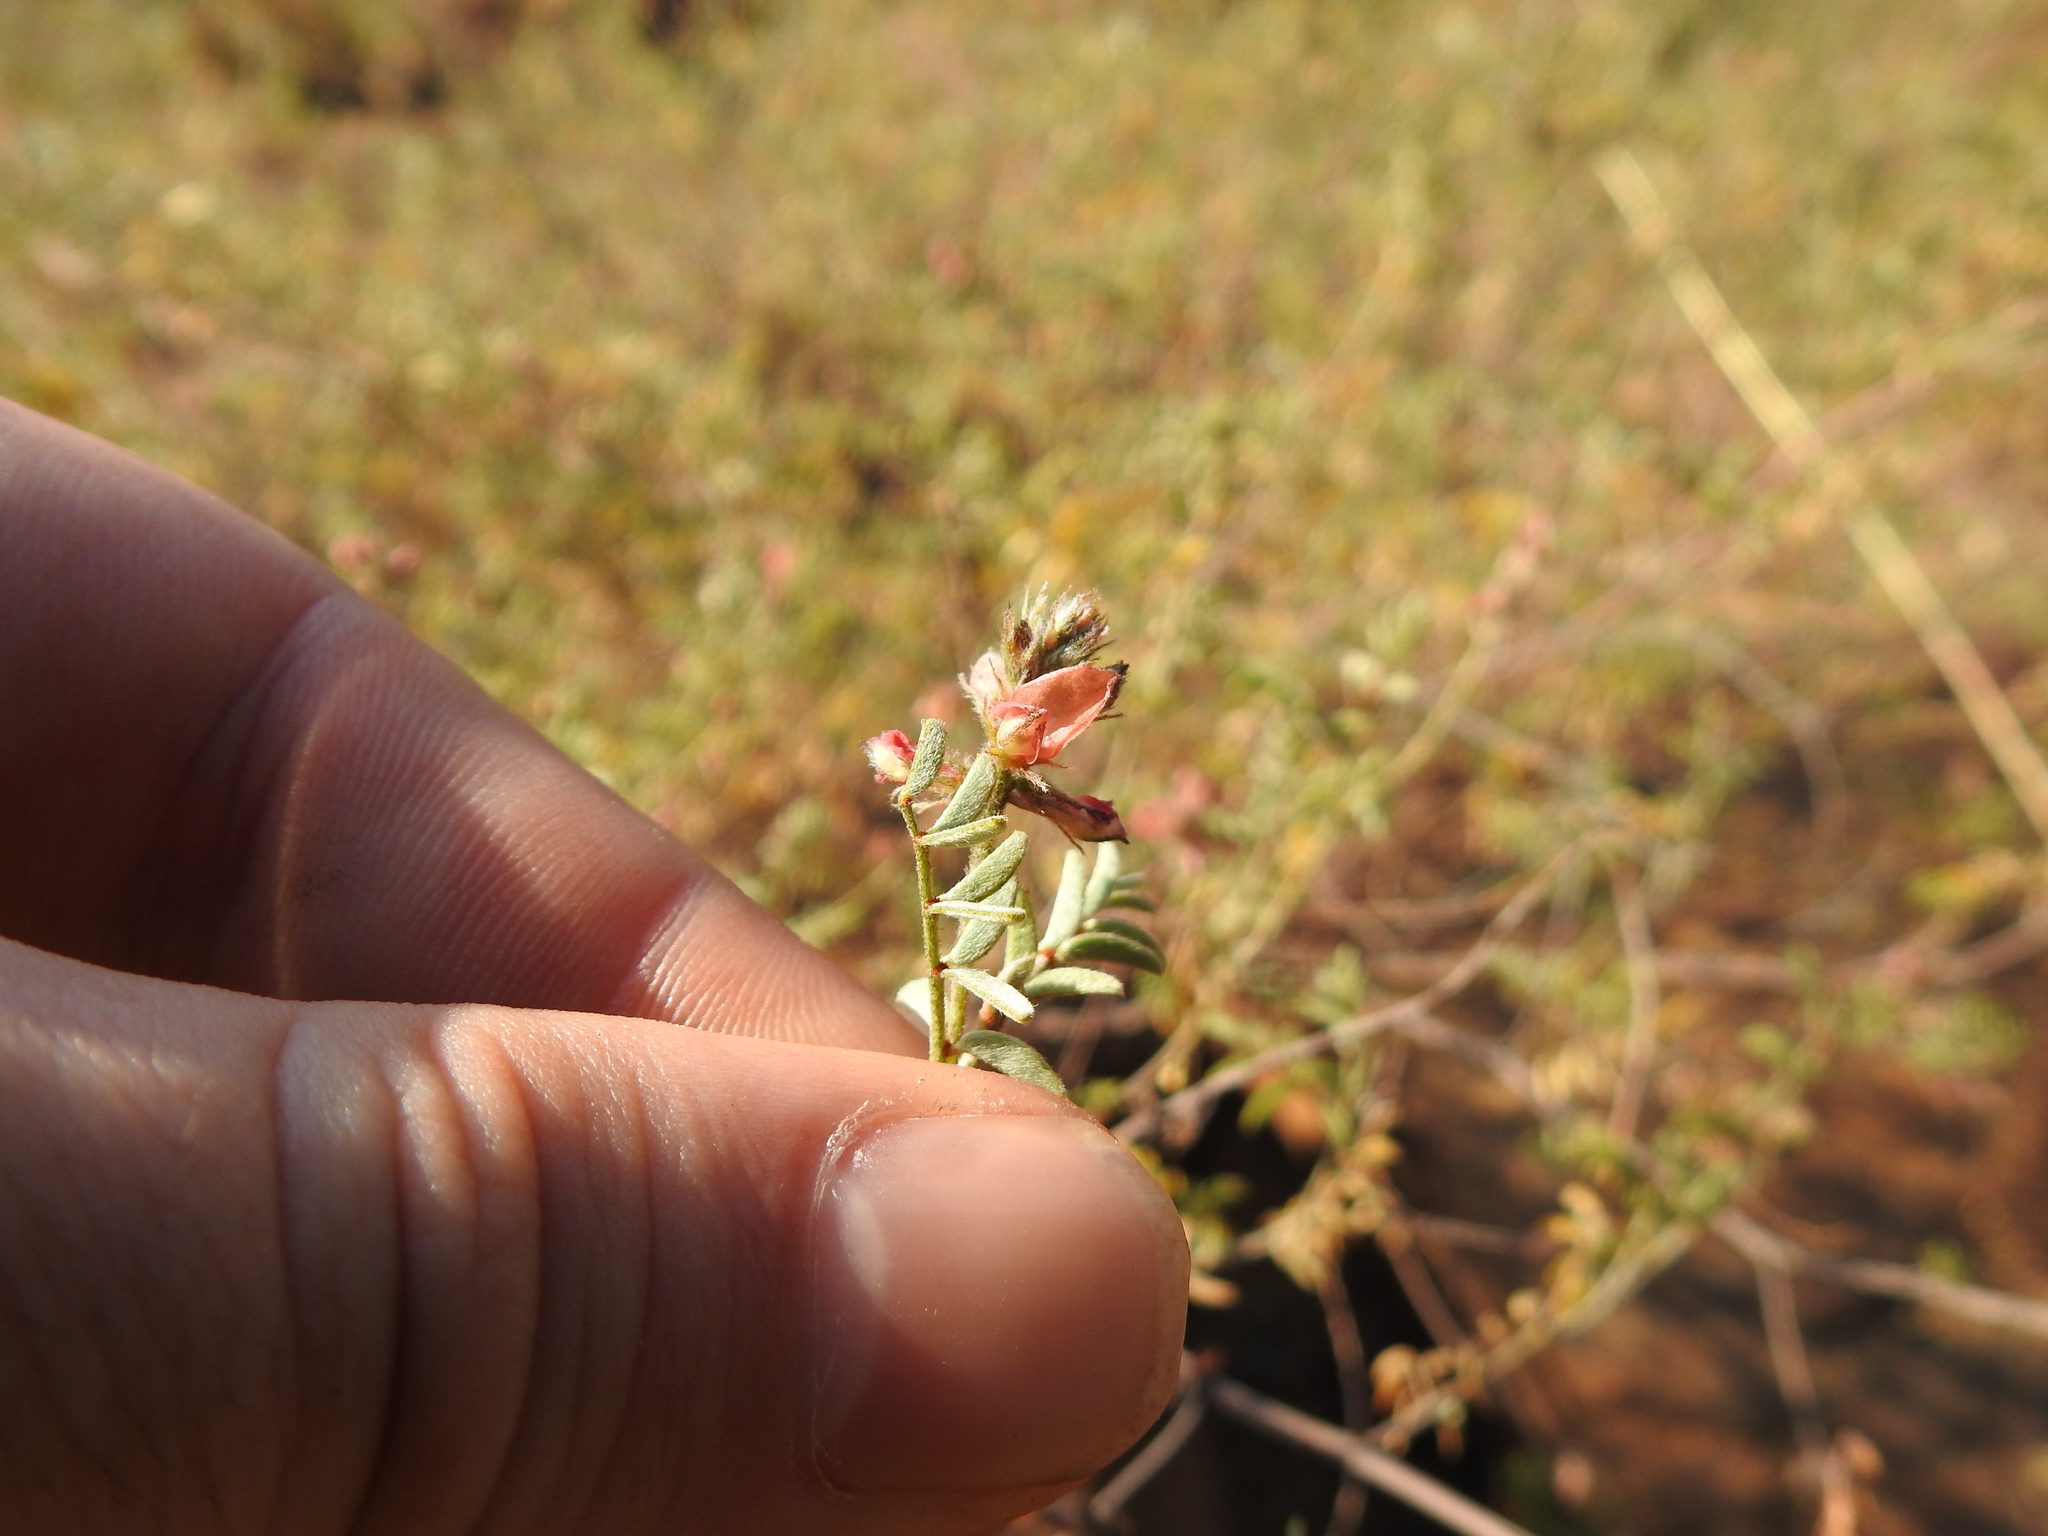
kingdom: Plantae
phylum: Tracheophyta
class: Magnoliopsida
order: Fabales
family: Fabaceae
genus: Indigofera
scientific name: Indigofera melanadenia
